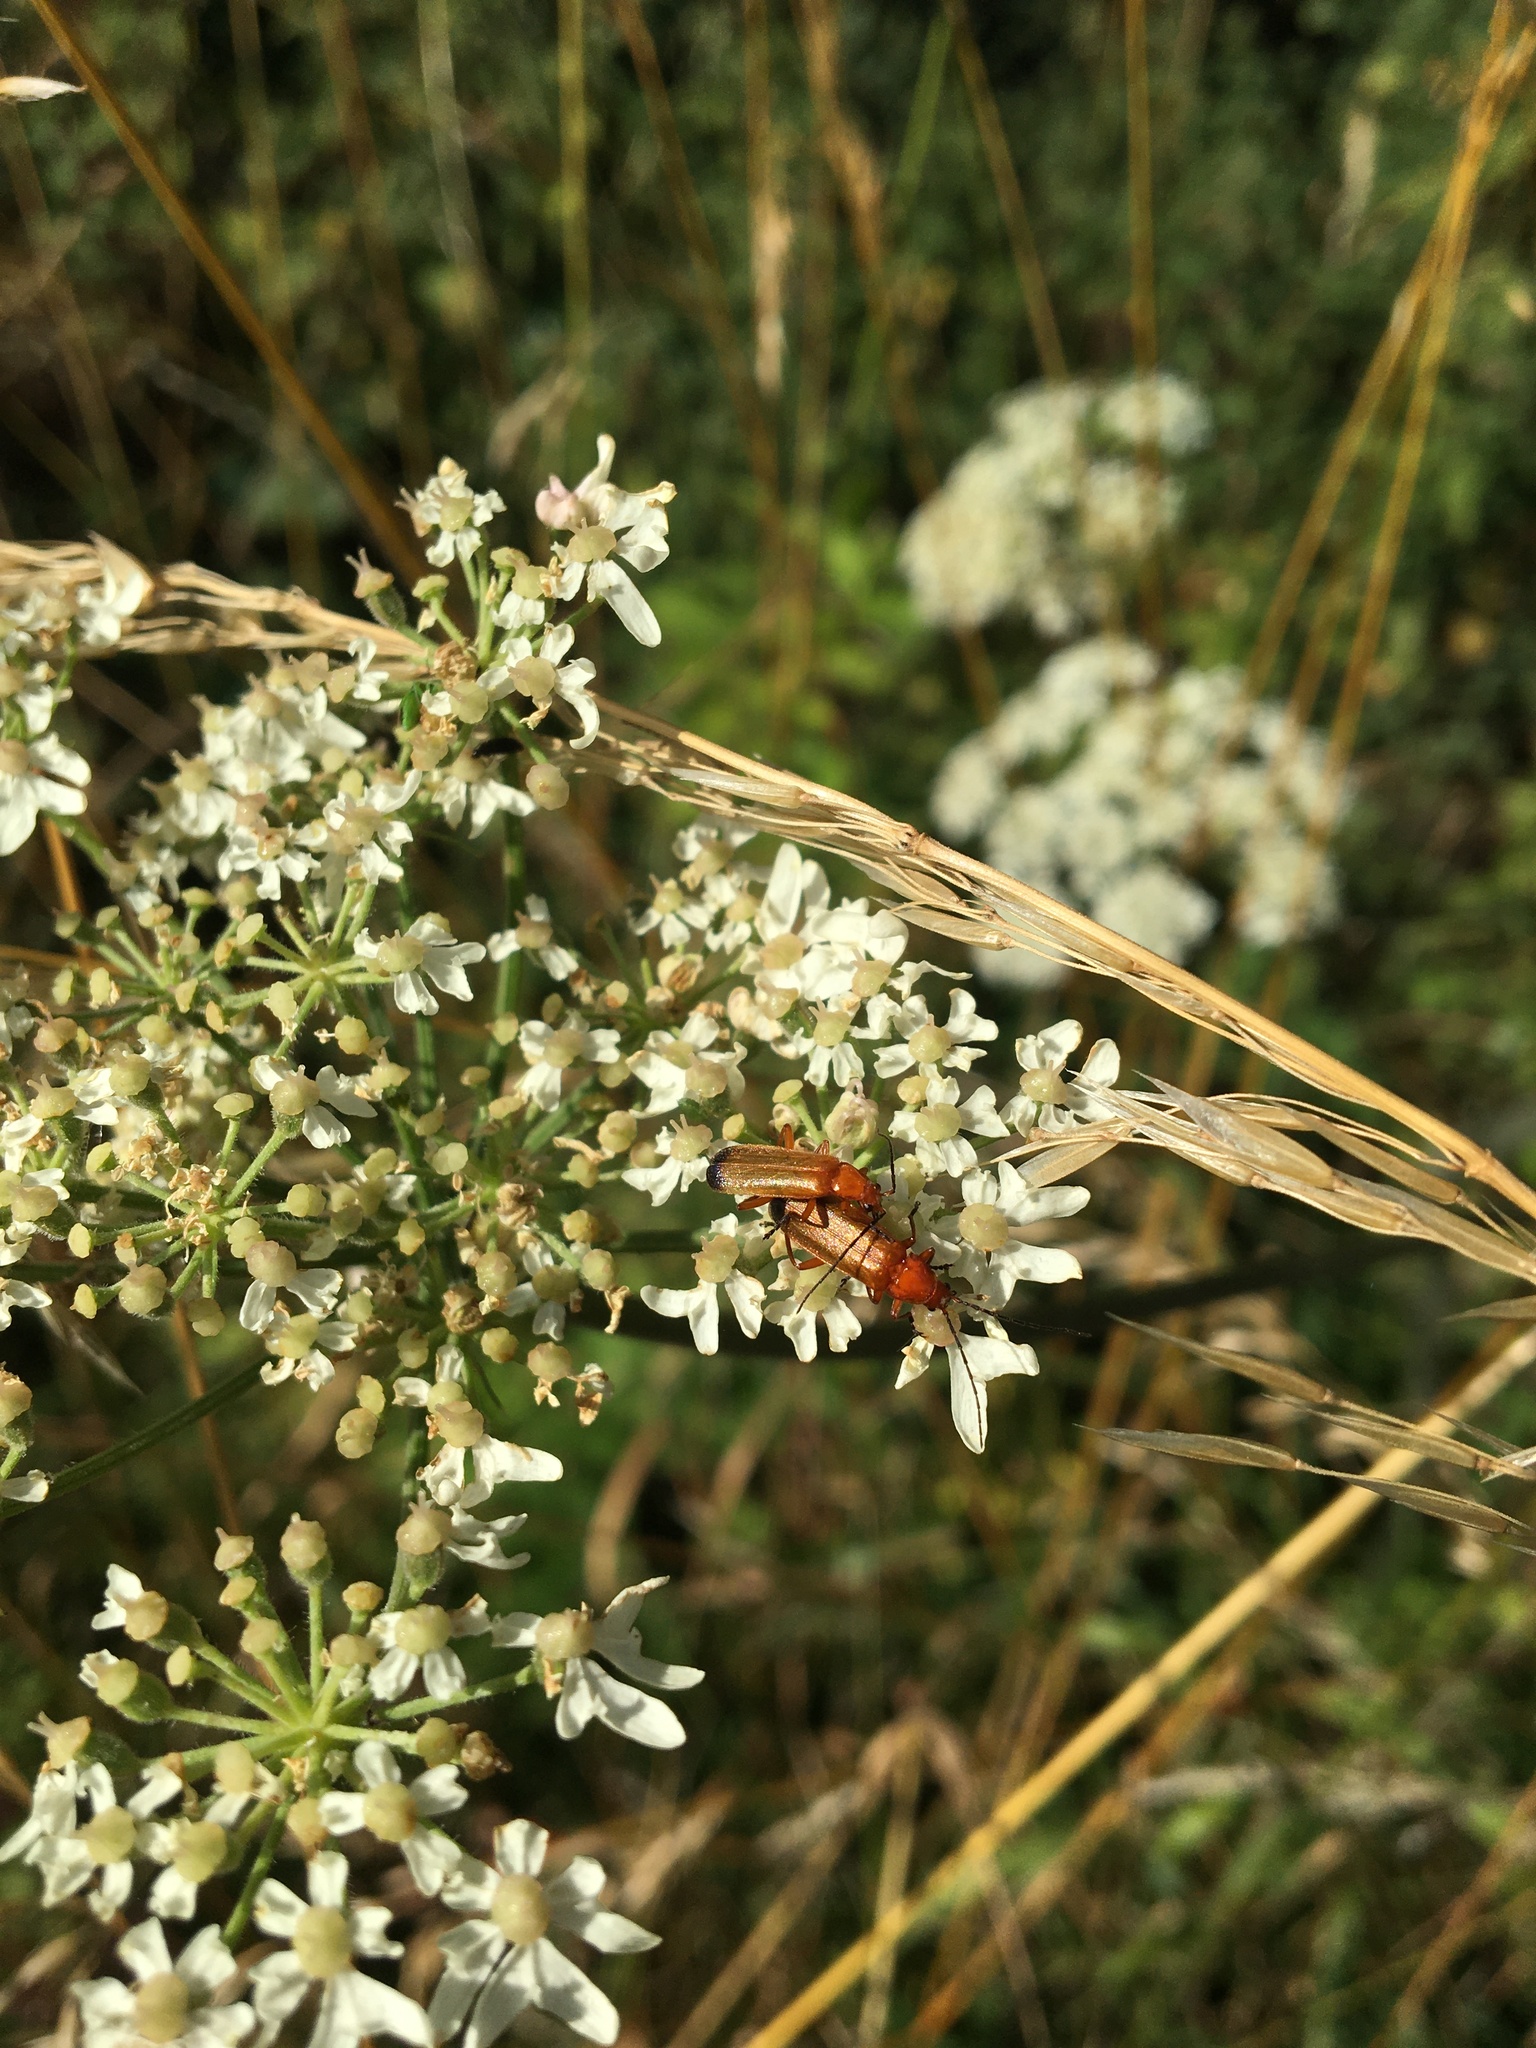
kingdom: Animalia
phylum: Arthropoda
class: Insecta
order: Coleoptera
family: Cantharidae
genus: Rhagonycha
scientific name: Rhagonycha fulva
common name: Common red soldier beetle
